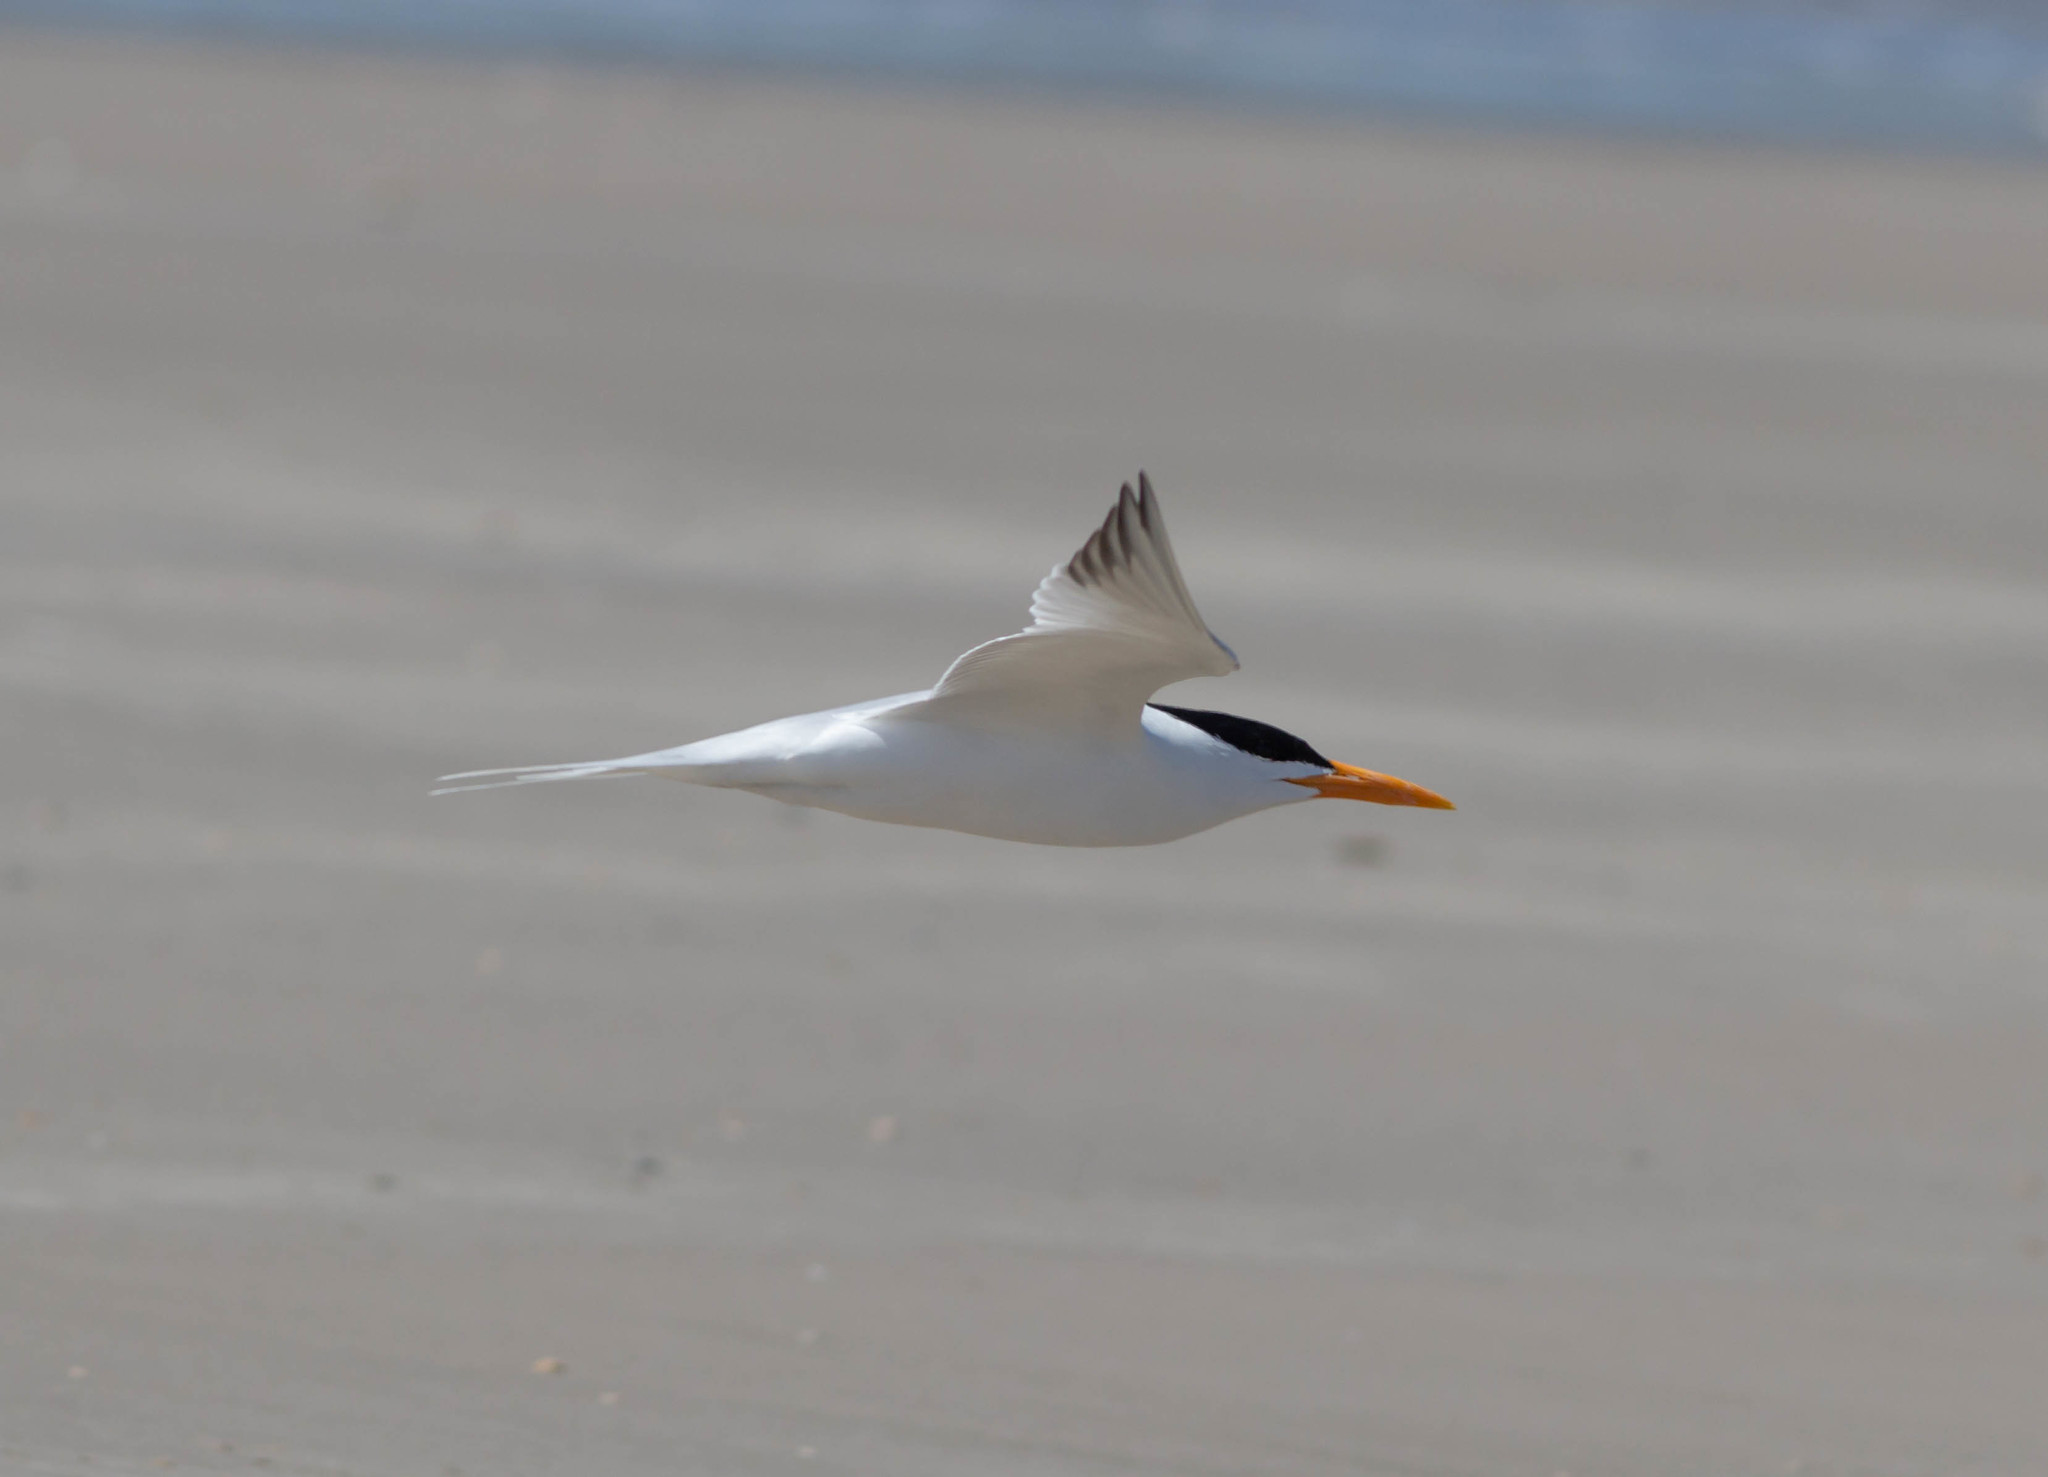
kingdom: Animalia
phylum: Chordata
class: Aves
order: Charadriiformes
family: Laridae
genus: Thalasseus
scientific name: Thalasseus maximus
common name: Royal tern
